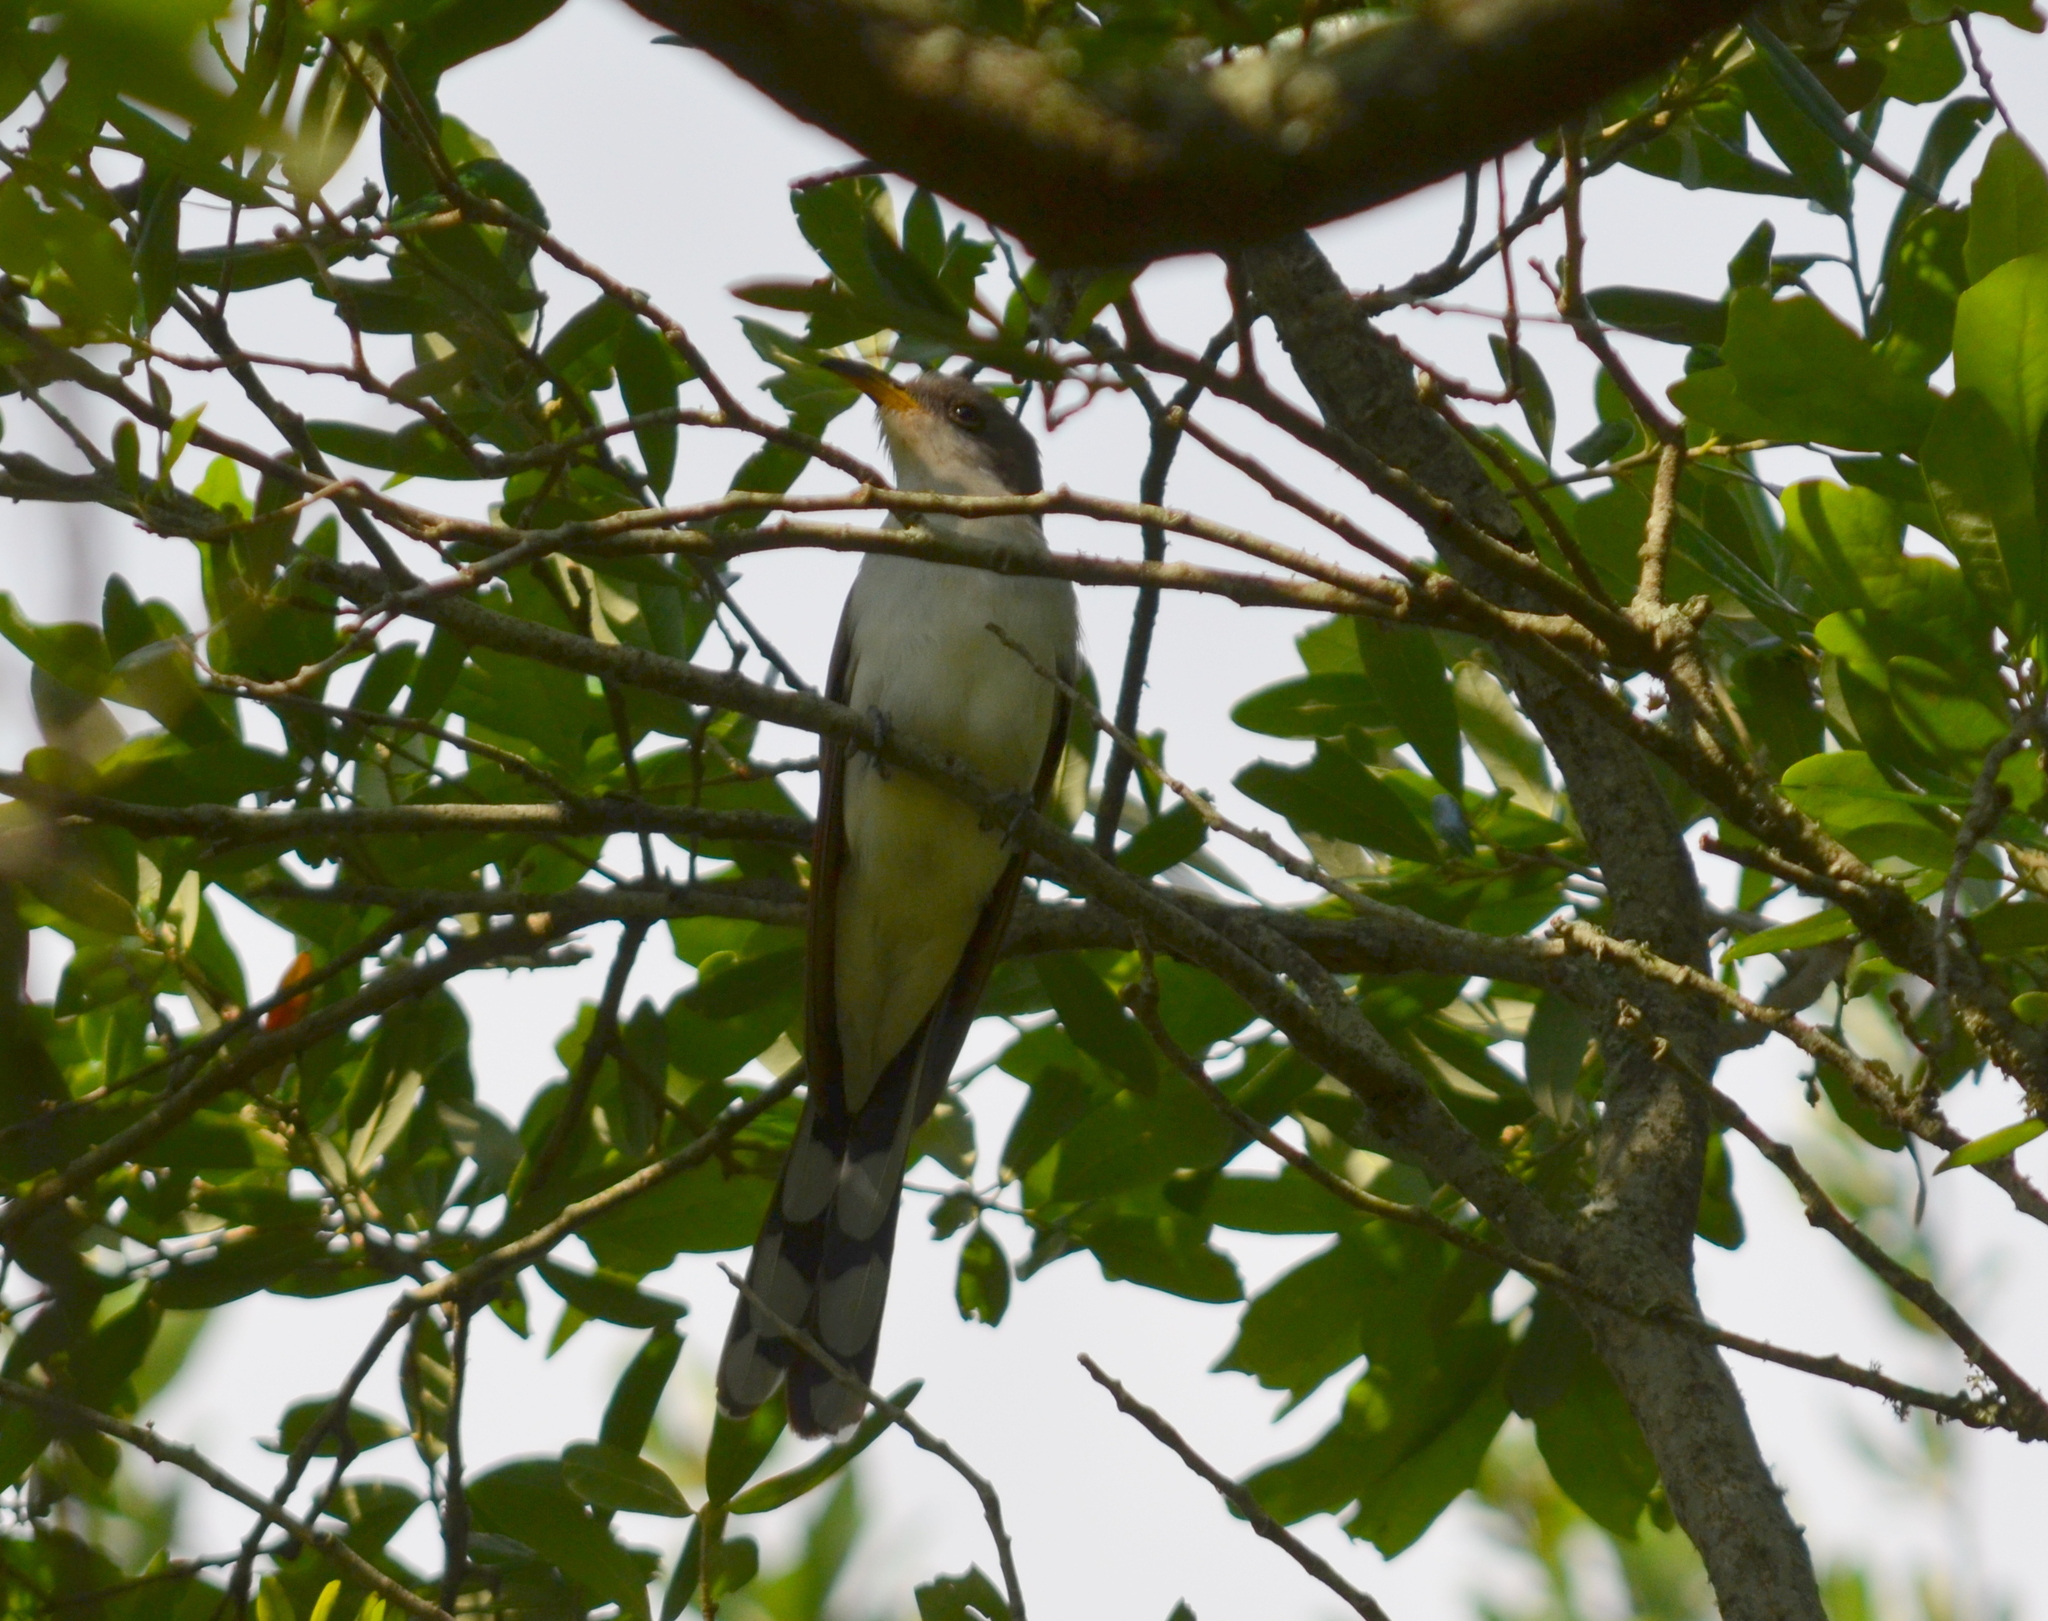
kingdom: Animalia
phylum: Chordata
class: Aves
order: Cuculiformes
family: Cuculidae
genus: Coccyzus
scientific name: Coccyzus americanus
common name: Yellow-billed cuckoo
